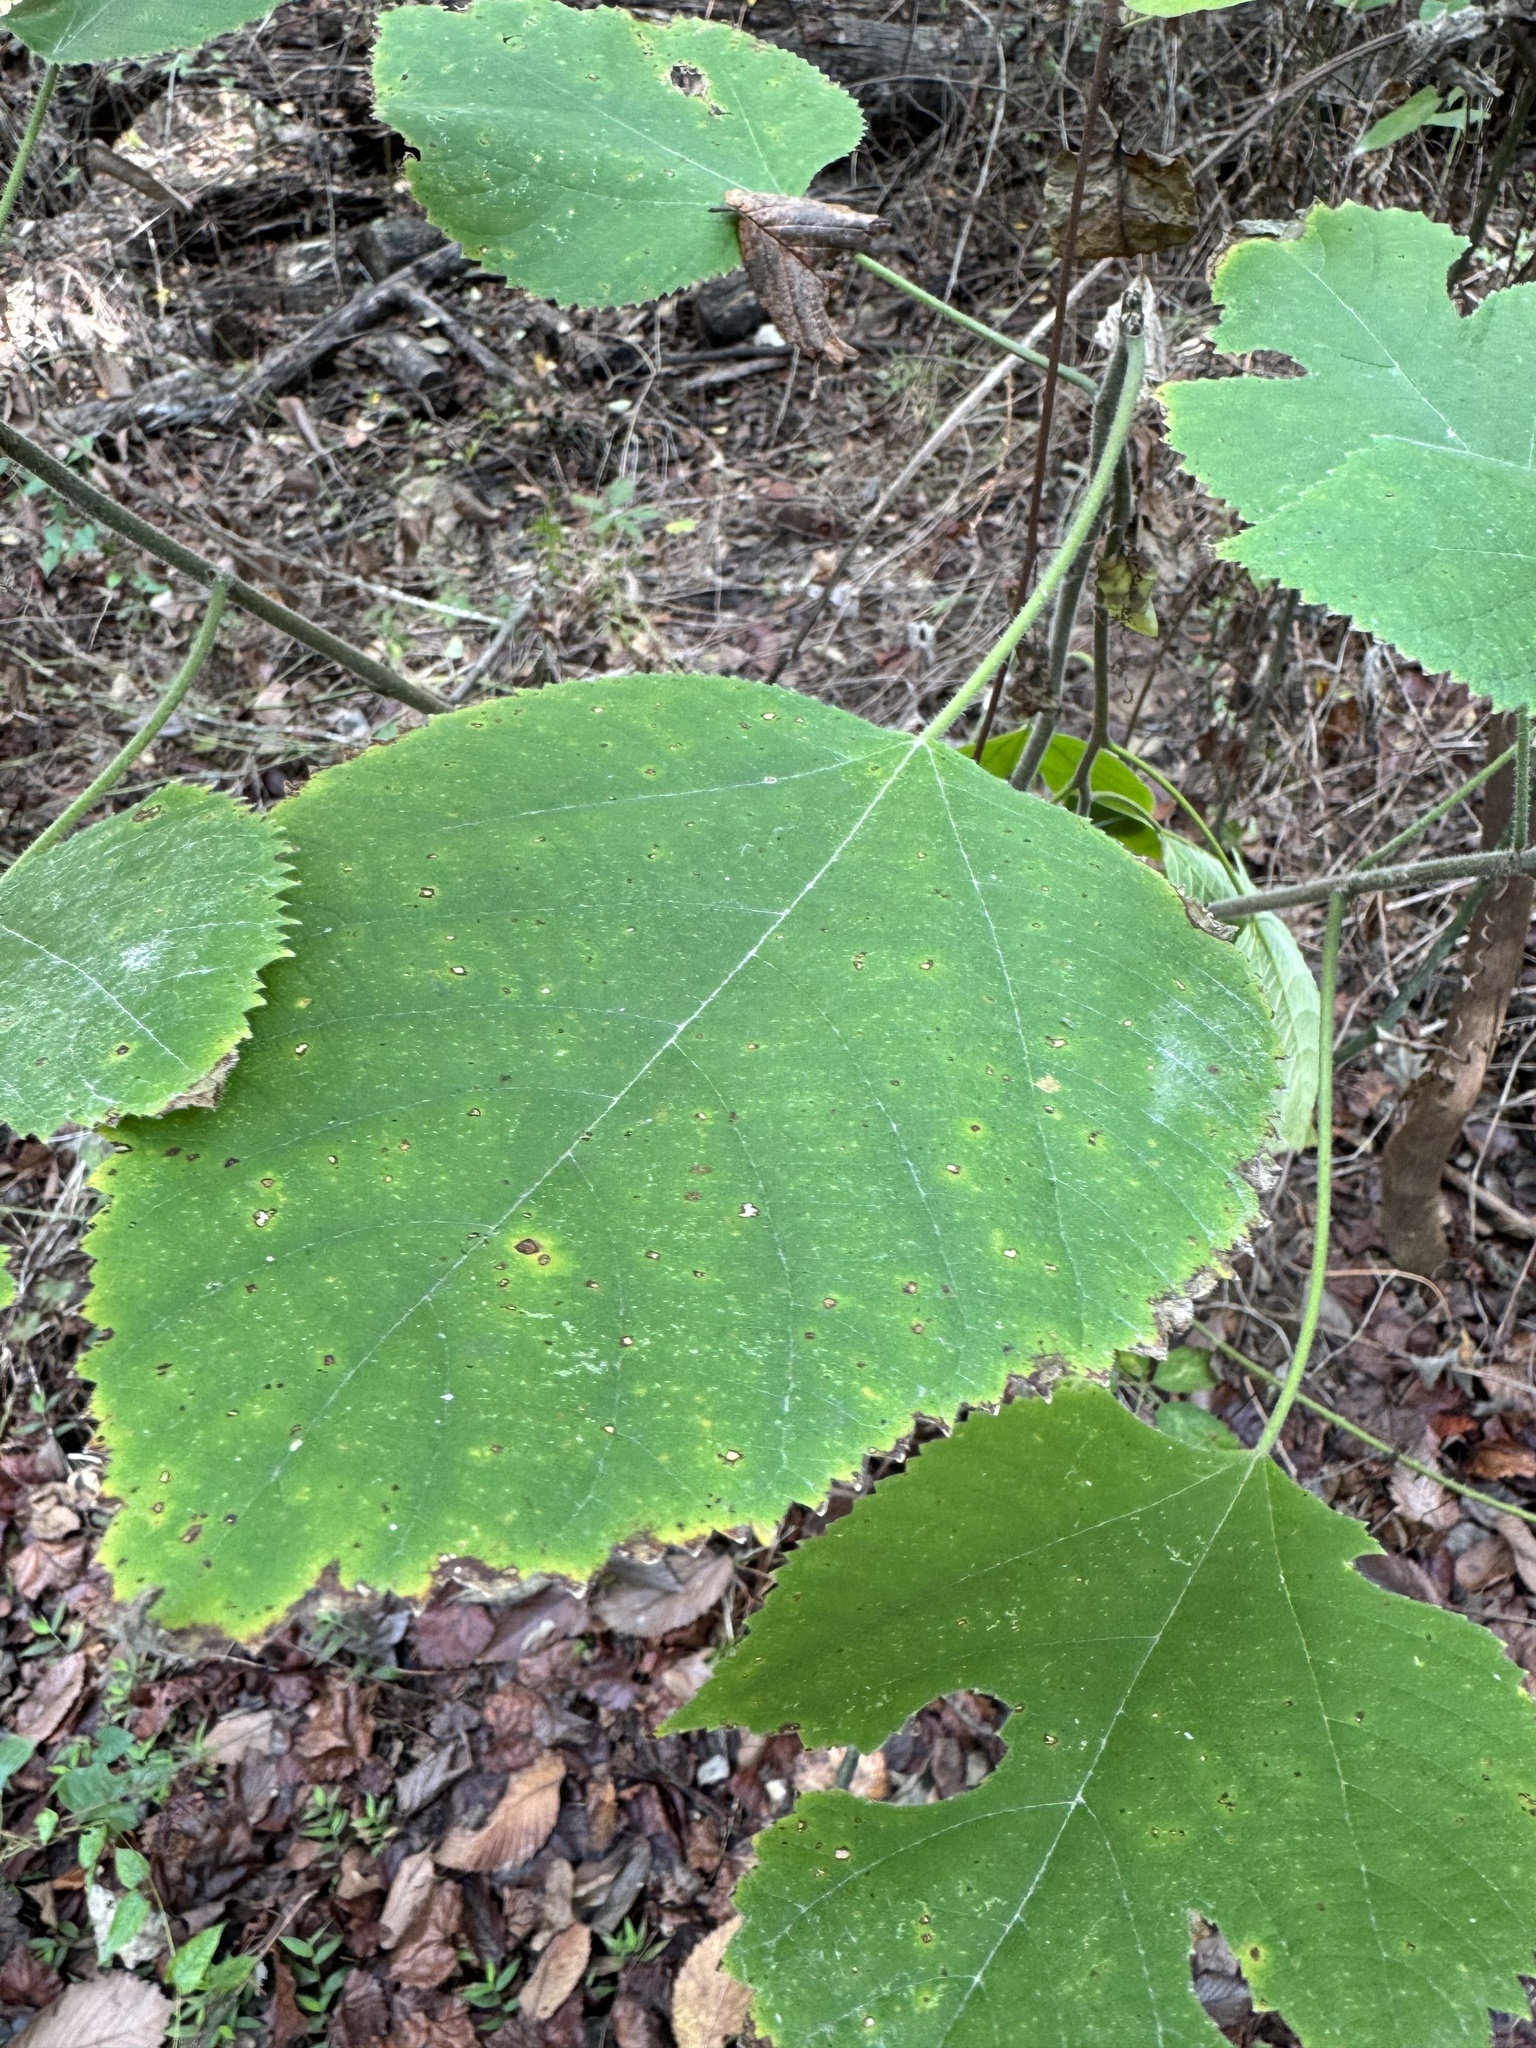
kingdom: Plantae
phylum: Tracheophyta
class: Magnoliopsida
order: Rosales
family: Moraceae
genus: Broussonetia
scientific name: Broussonetia papyrifera
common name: Paper mulberry
